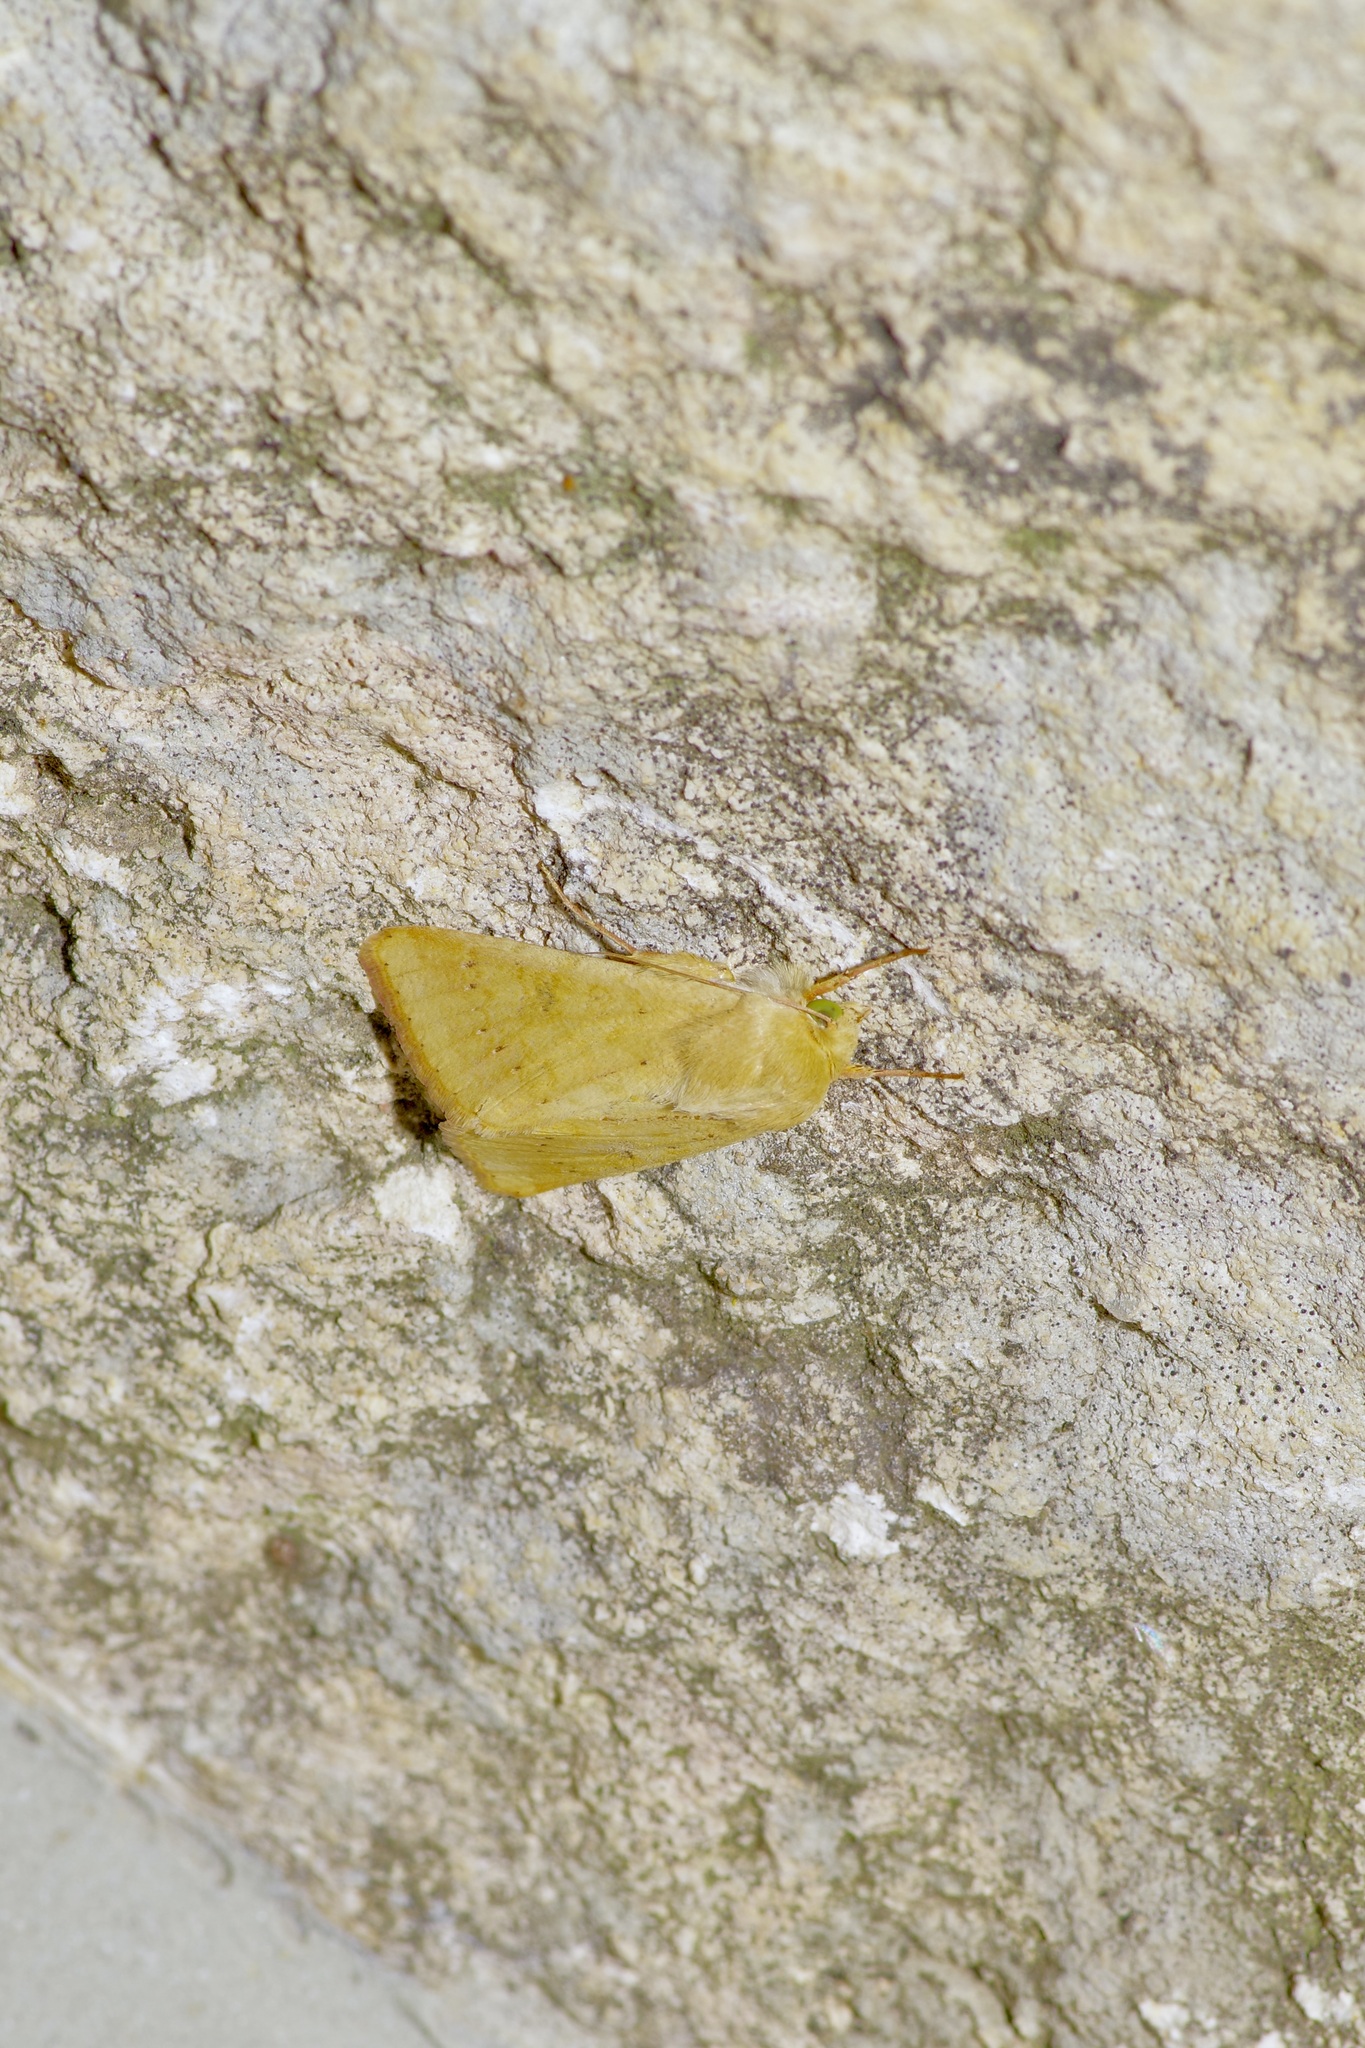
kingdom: Animalia
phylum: Arthropoda
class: Insecta
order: Lepidoptera
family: Noctuidae
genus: Helicoverpa
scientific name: Helicoverpa zea
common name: Bollworm
